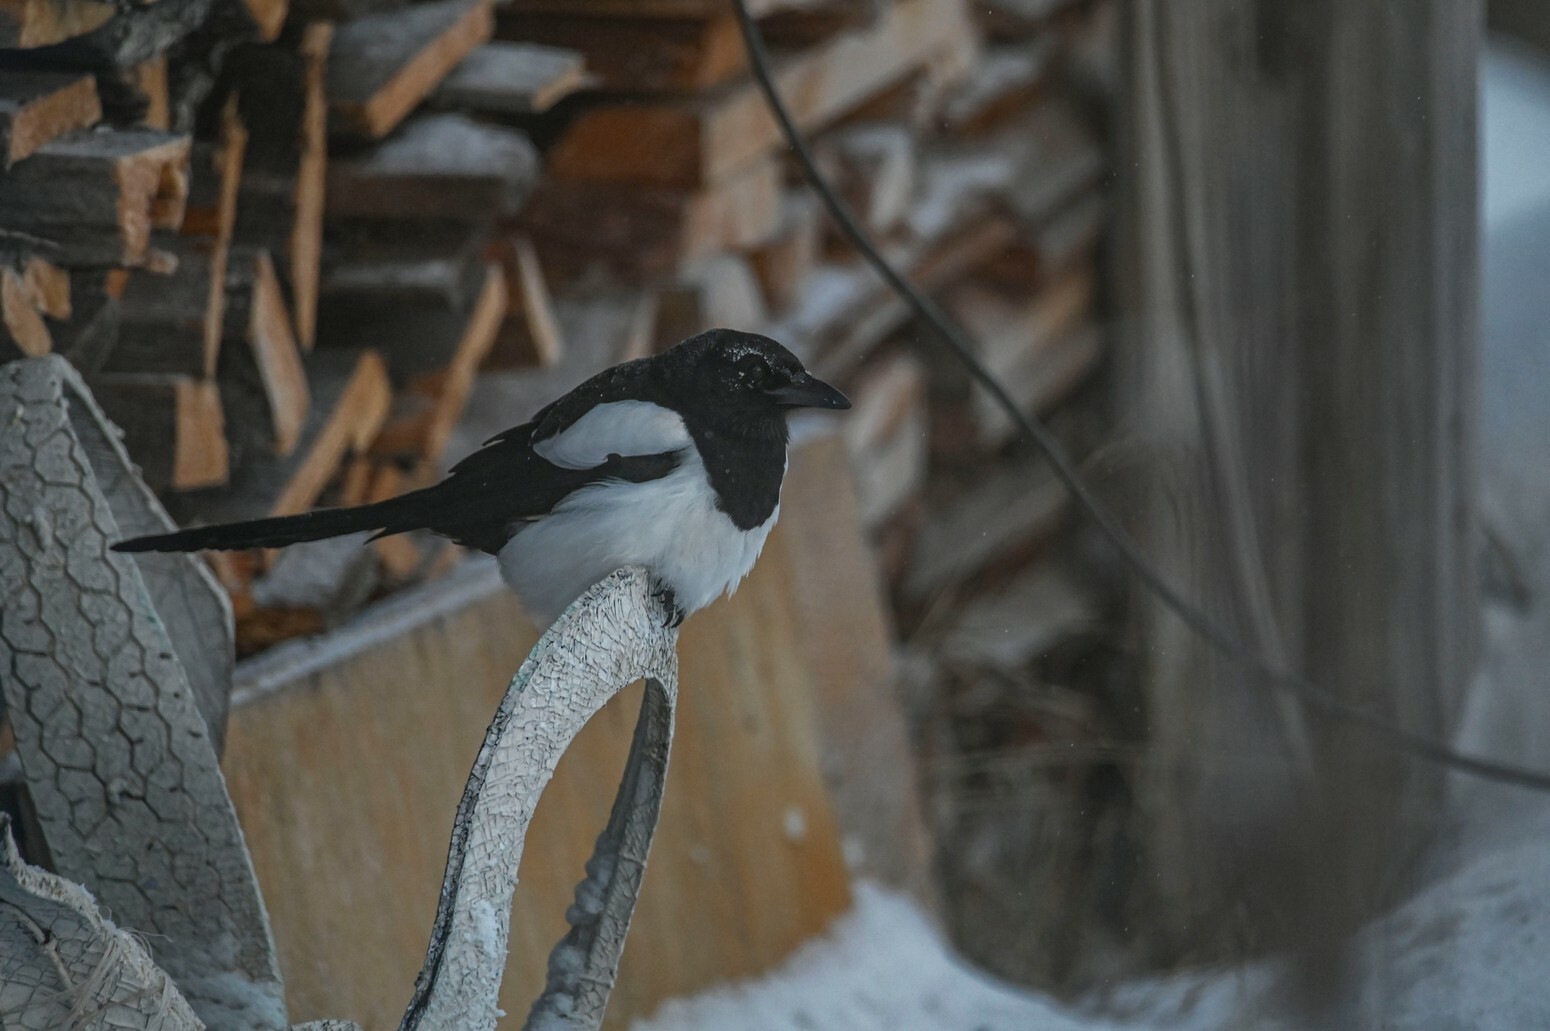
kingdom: Animalia
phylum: Chordata
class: Aves
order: Passeriformes
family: Corvidae
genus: Pica
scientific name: Pica pica
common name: Eurasian magpie
